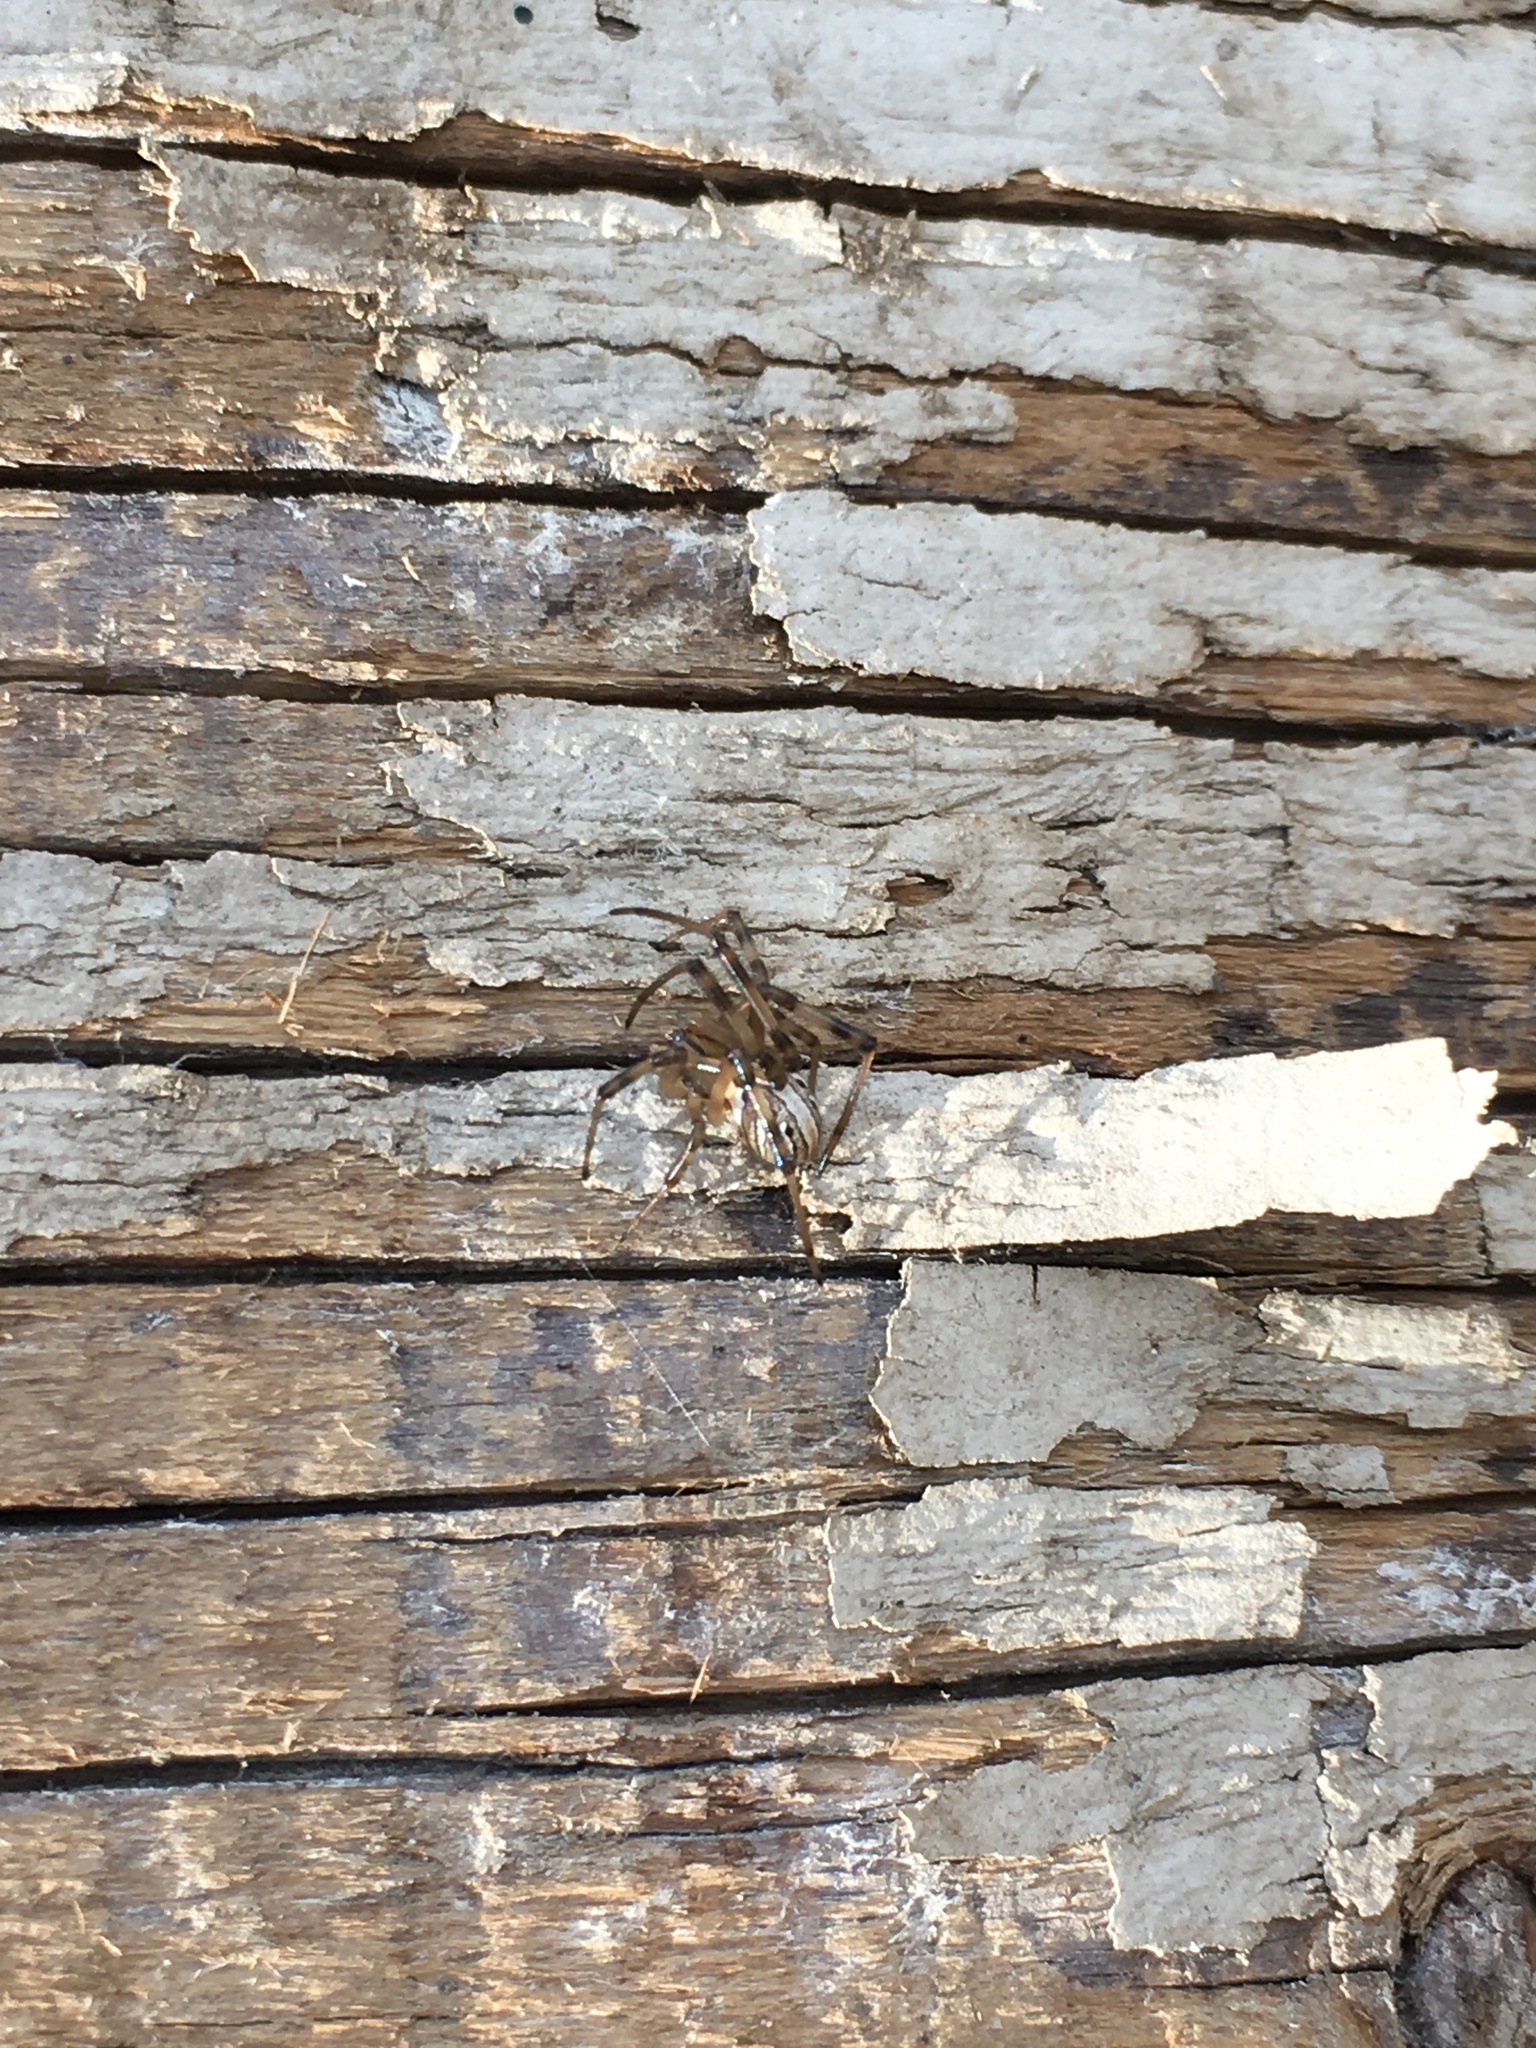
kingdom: Animalia
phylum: Arthropoda
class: Arachnida
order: Araneae
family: Theridiidae
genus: Latrodectus
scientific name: Latrodectus hesperus
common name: Western black widow
